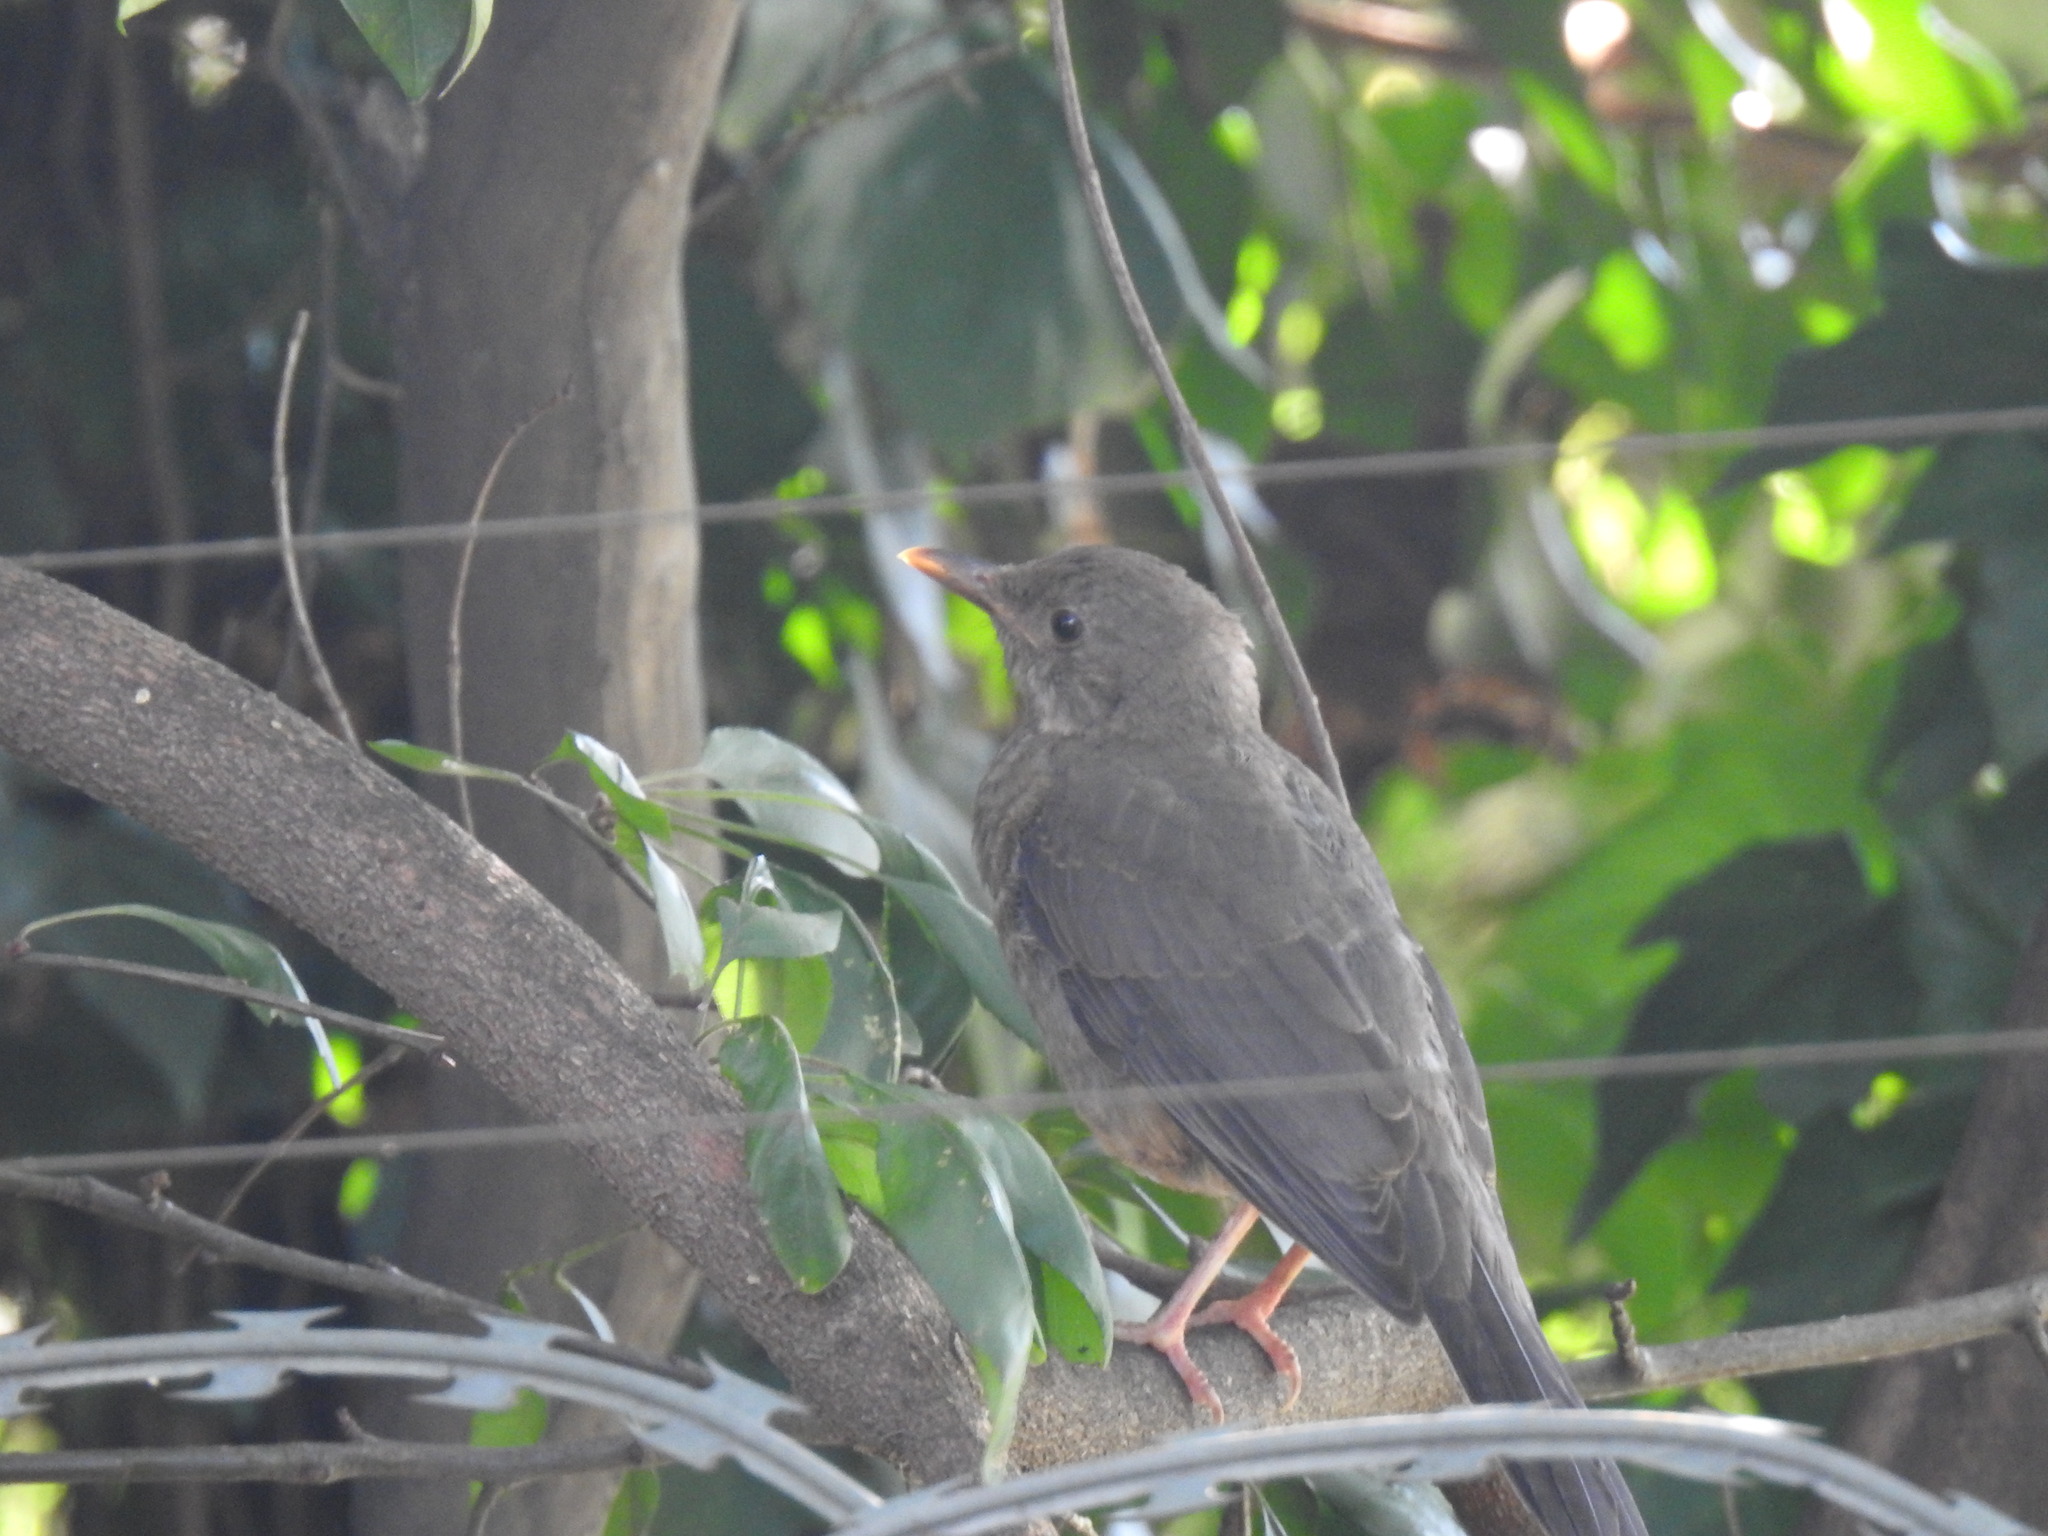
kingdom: Animalia
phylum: Chordata
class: Aves
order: Passeriformes
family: Turdidae
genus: Turdus
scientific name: Turdus smithi
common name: Karoo thrush
